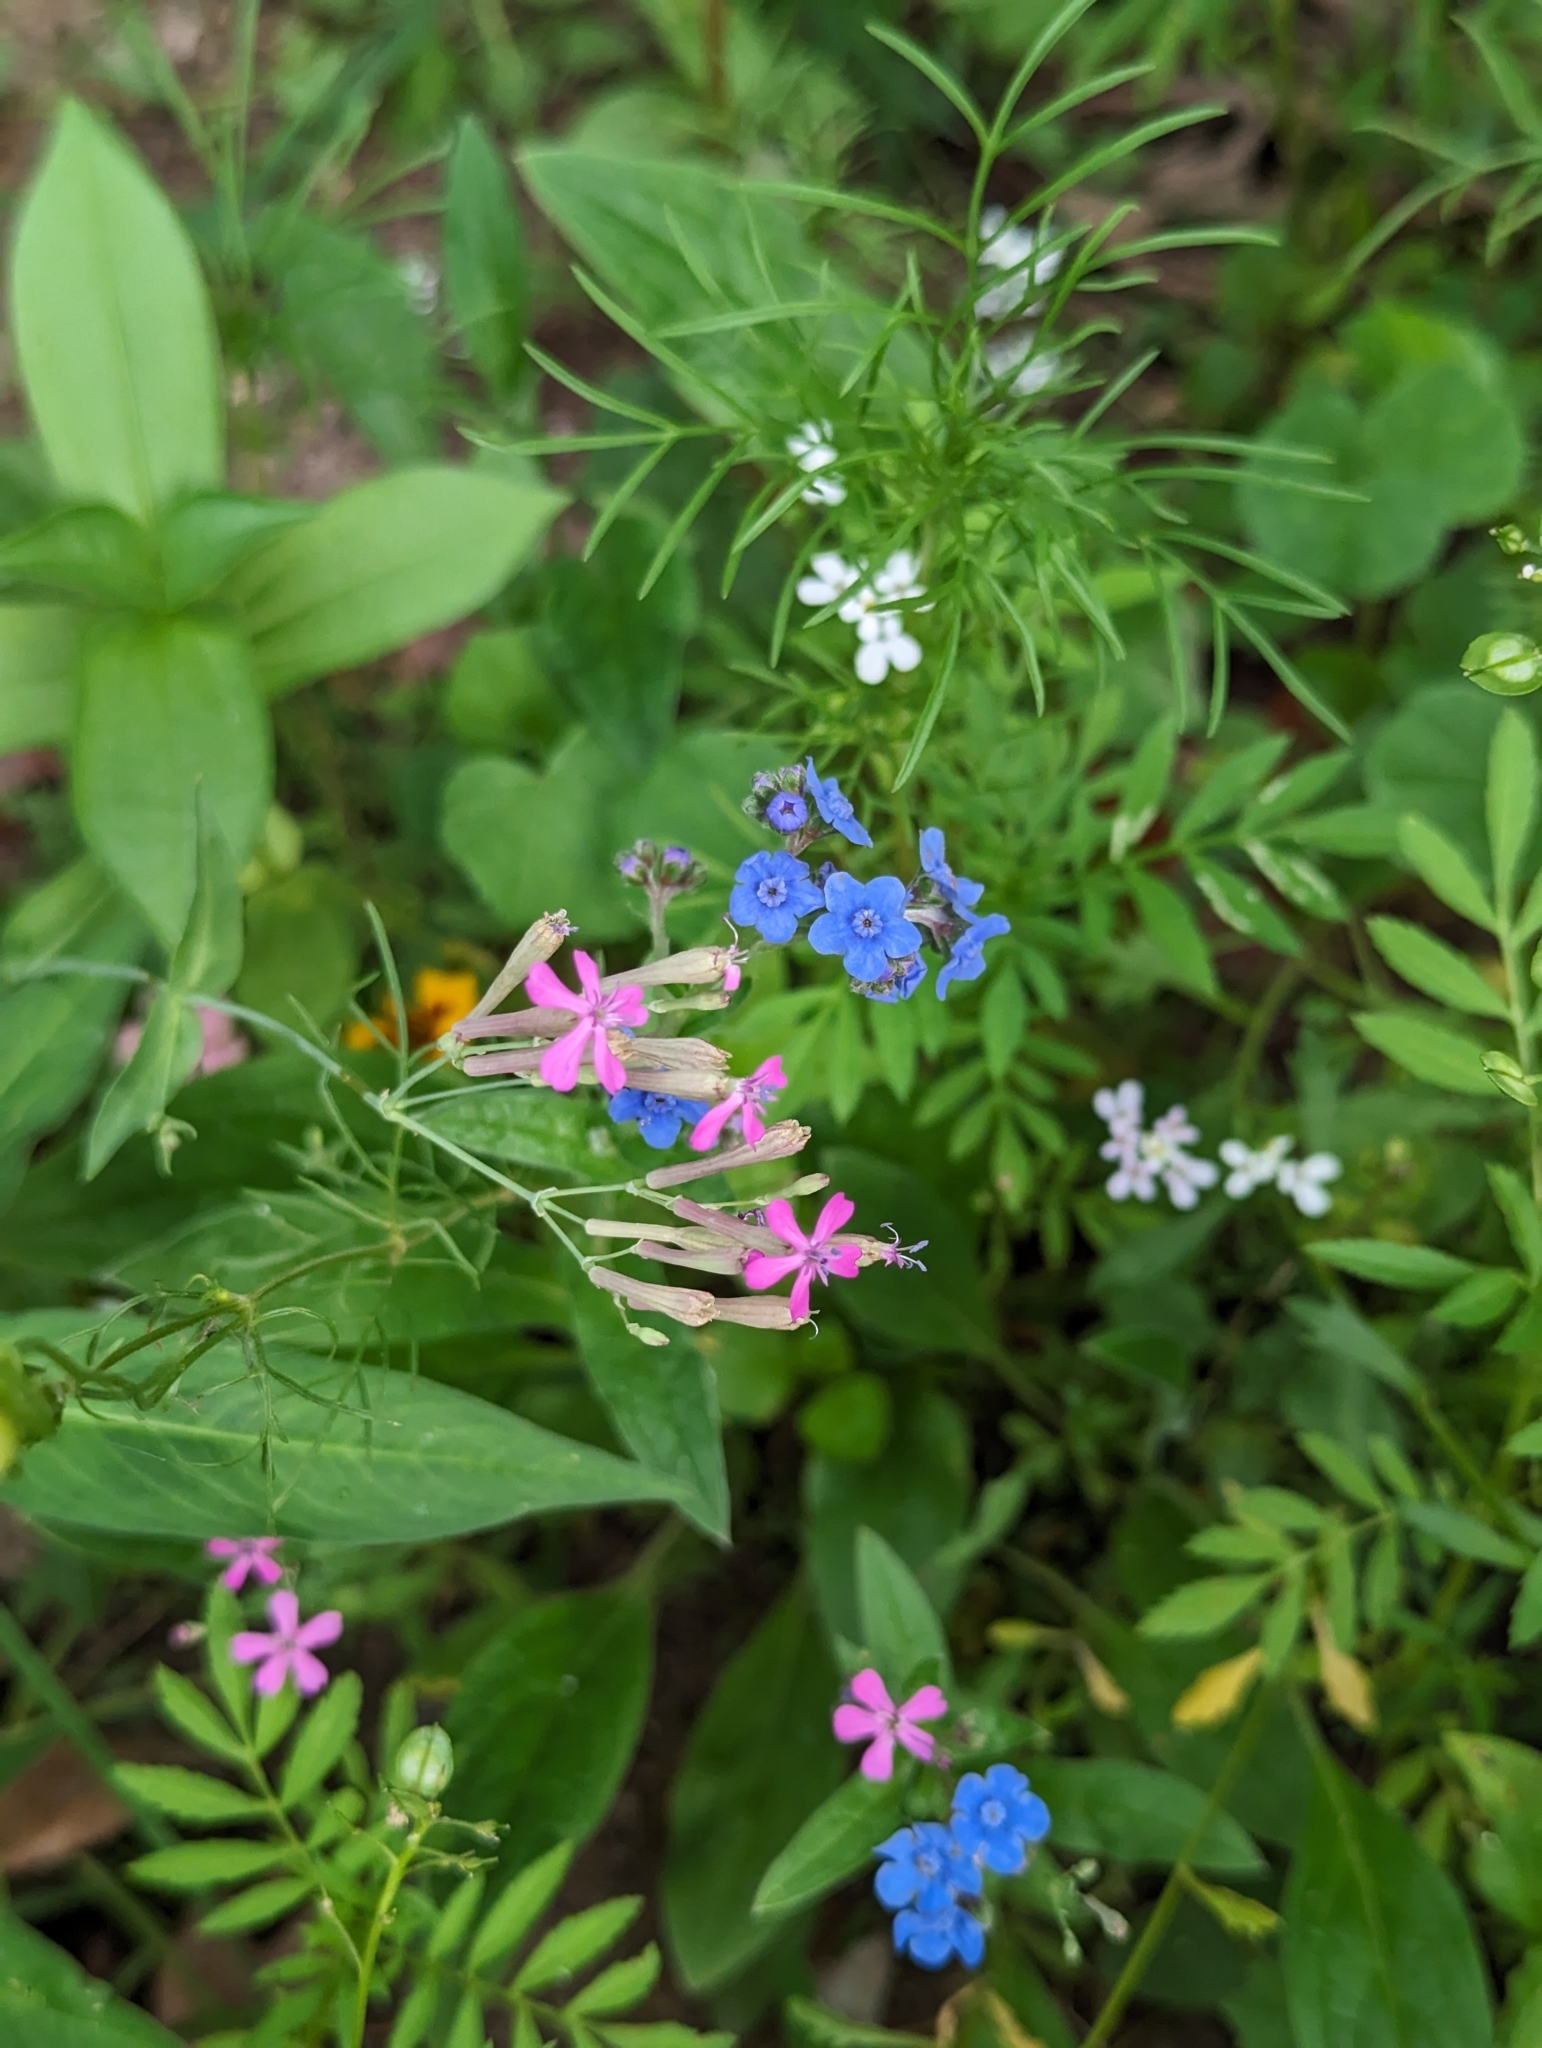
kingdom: Plantae
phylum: Tracheophyta
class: Magnoliopsida
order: Caryophyllales
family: Caryophyllaceae
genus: Atocion
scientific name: Atocion armeria
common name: Sweet william catchfly
